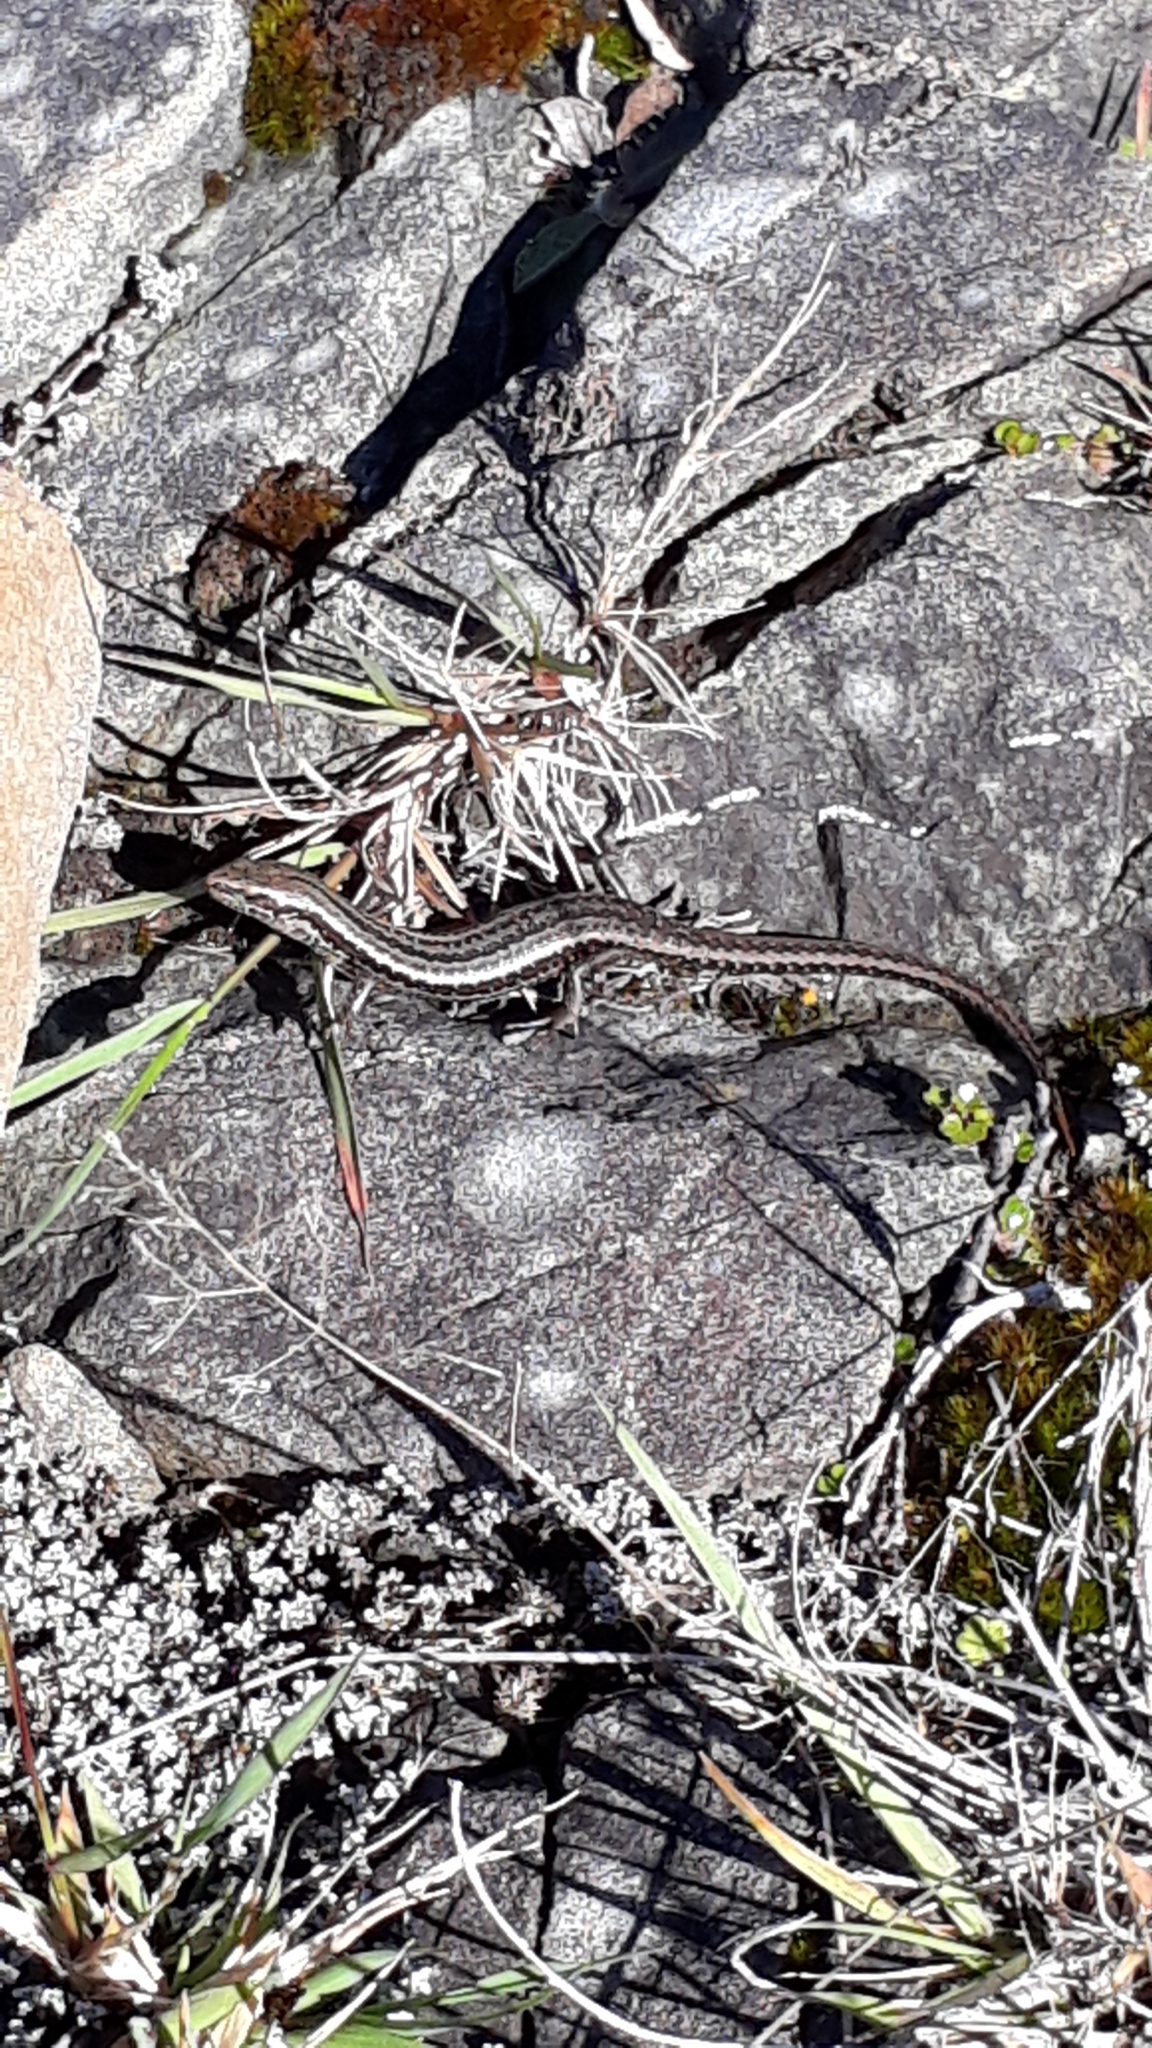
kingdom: Animalia
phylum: Chordata
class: Squamata
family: Scincidae
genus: Oligosoma
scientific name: Oligosoma maccanni
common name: Mccann’s skink
